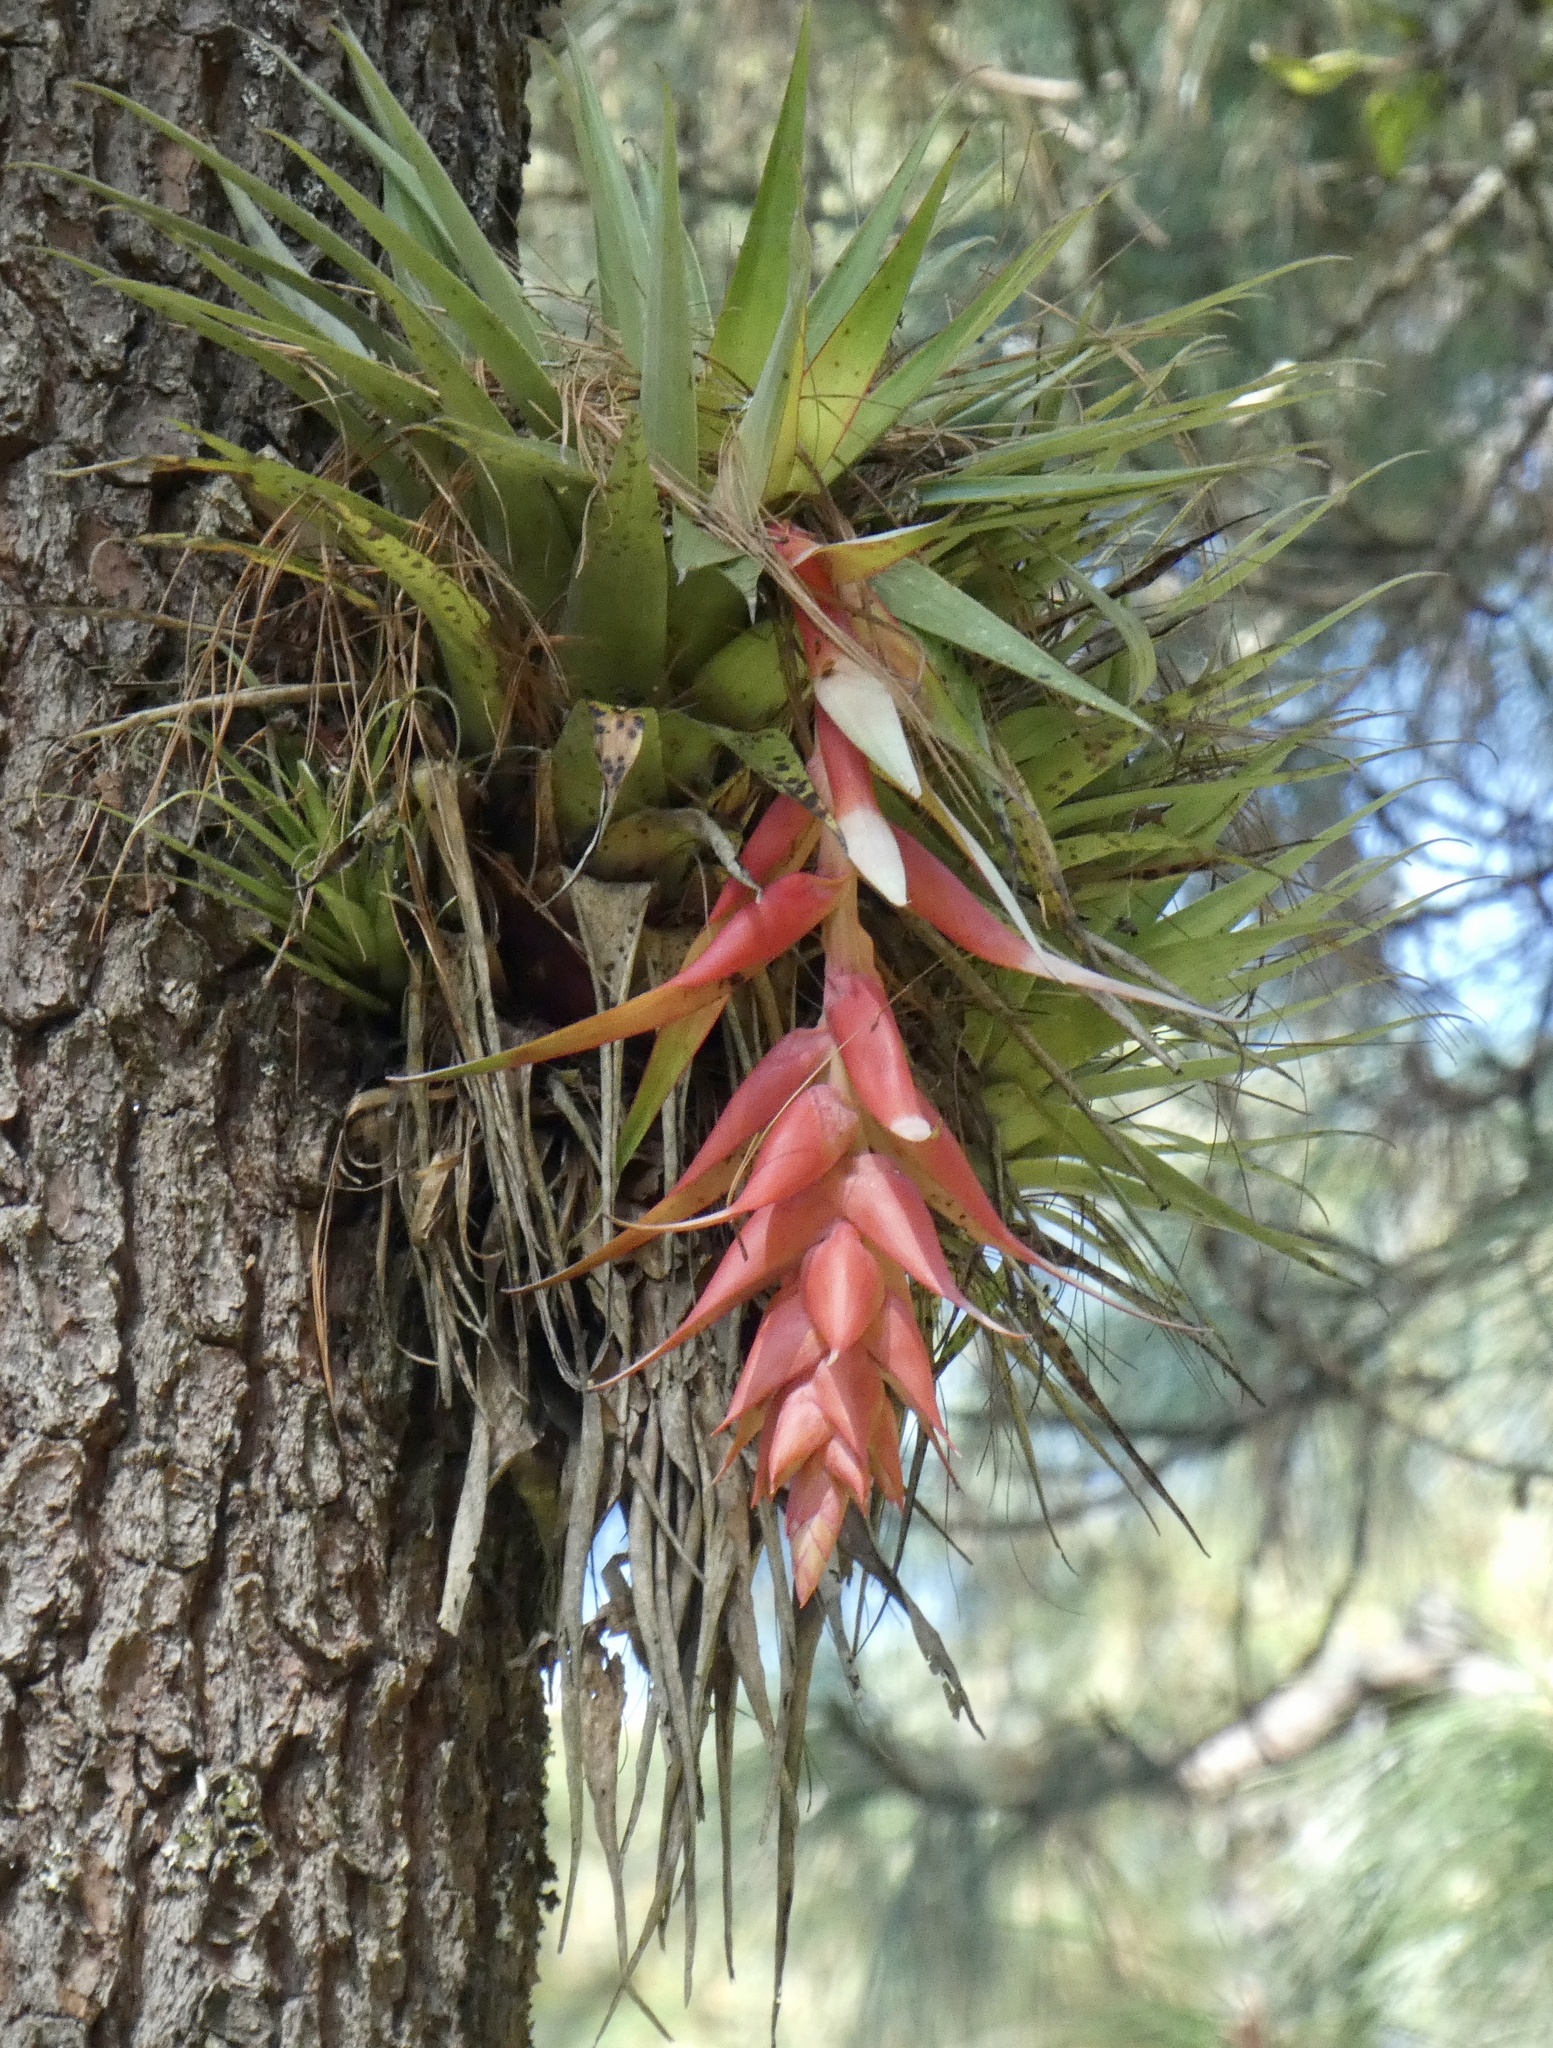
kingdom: Plantae
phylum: Tracheophyta
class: Liliopsida
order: Poales
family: Bromeliaceae
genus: Tillandsia
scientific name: Tillandsia violacea
